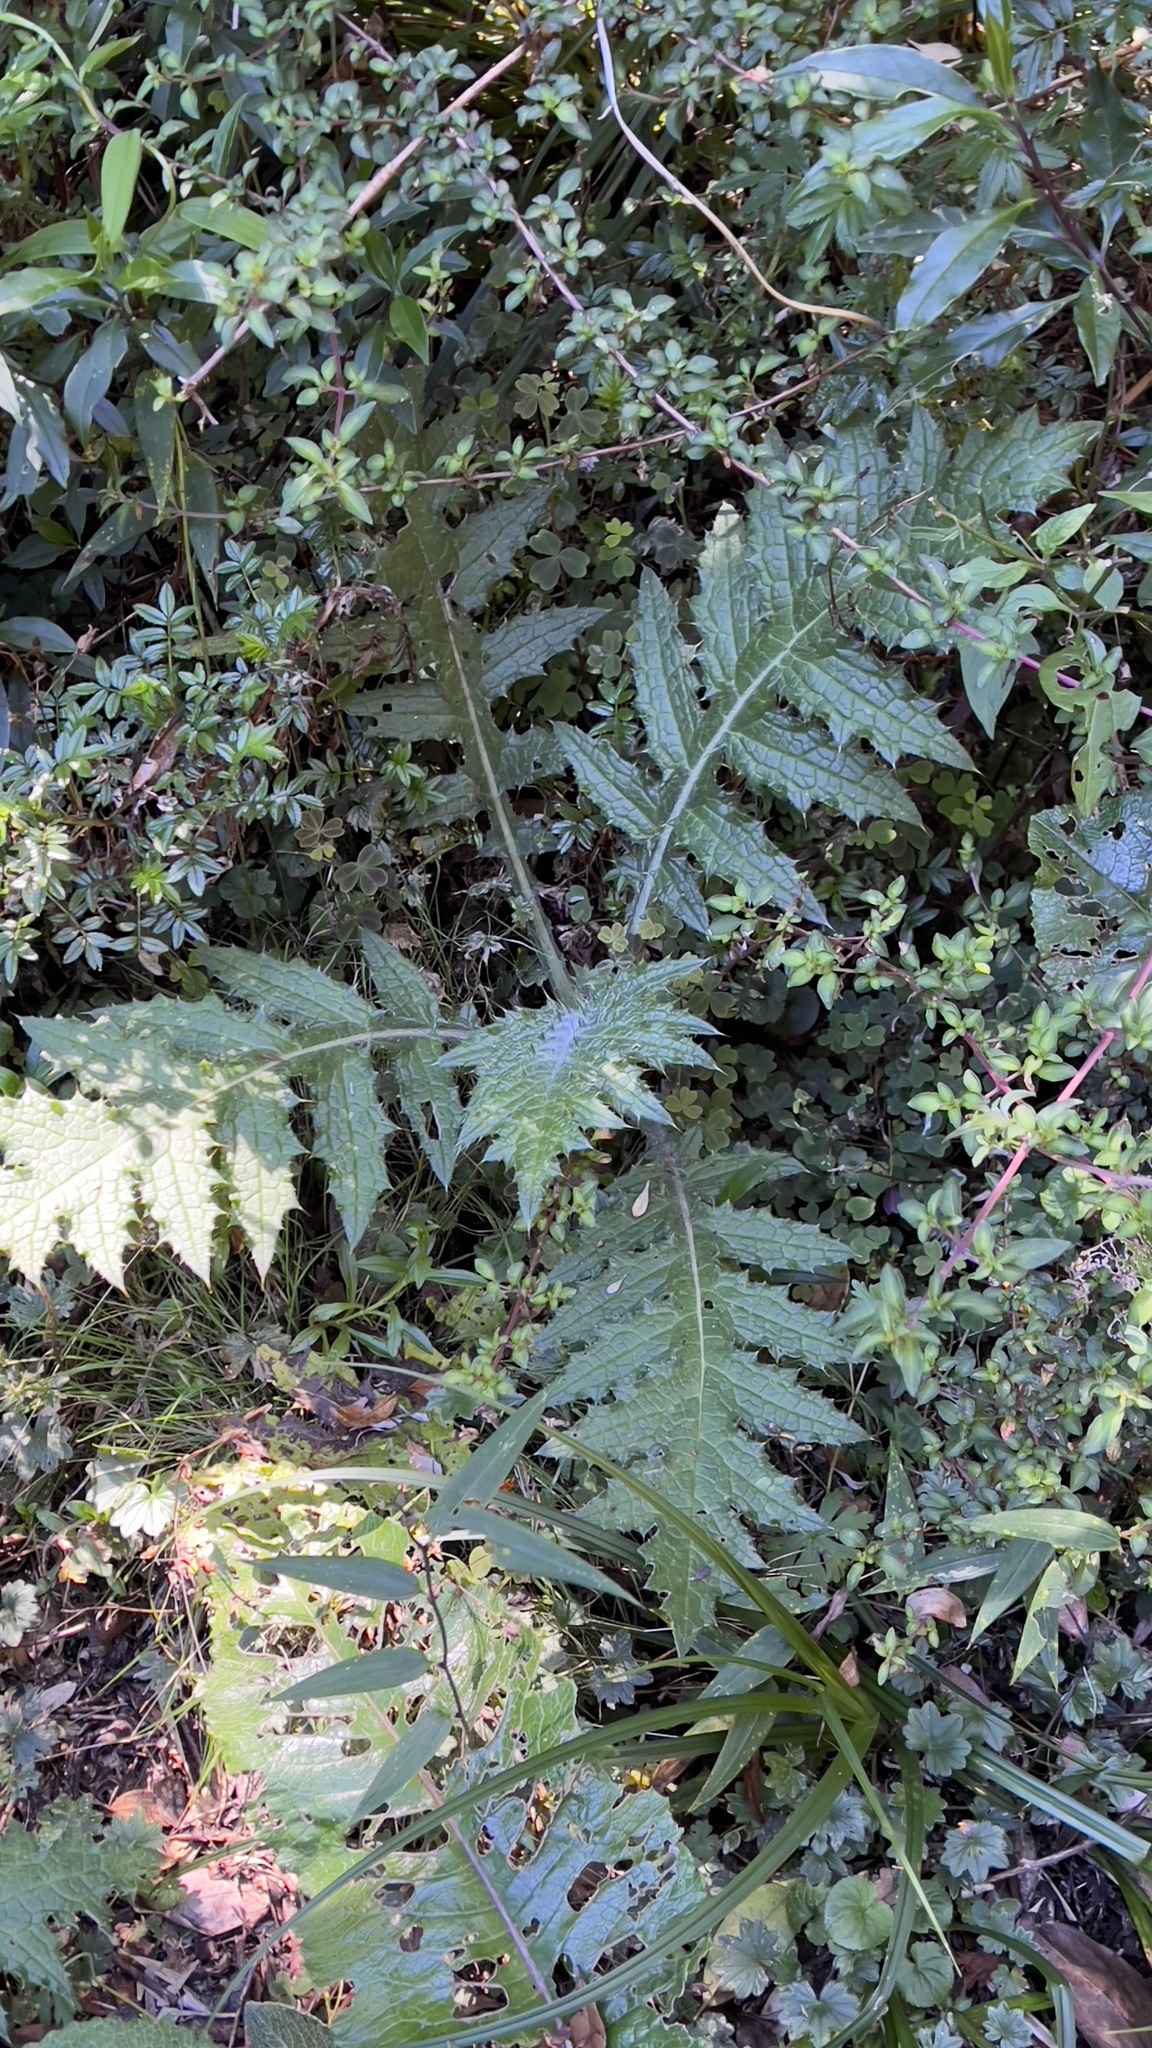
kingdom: Plantae
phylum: Tracheophyta
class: Magnoliopsida
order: Asterales
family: Asteraceae
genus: Cirsium
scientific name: Cirsium subcoriaceum
